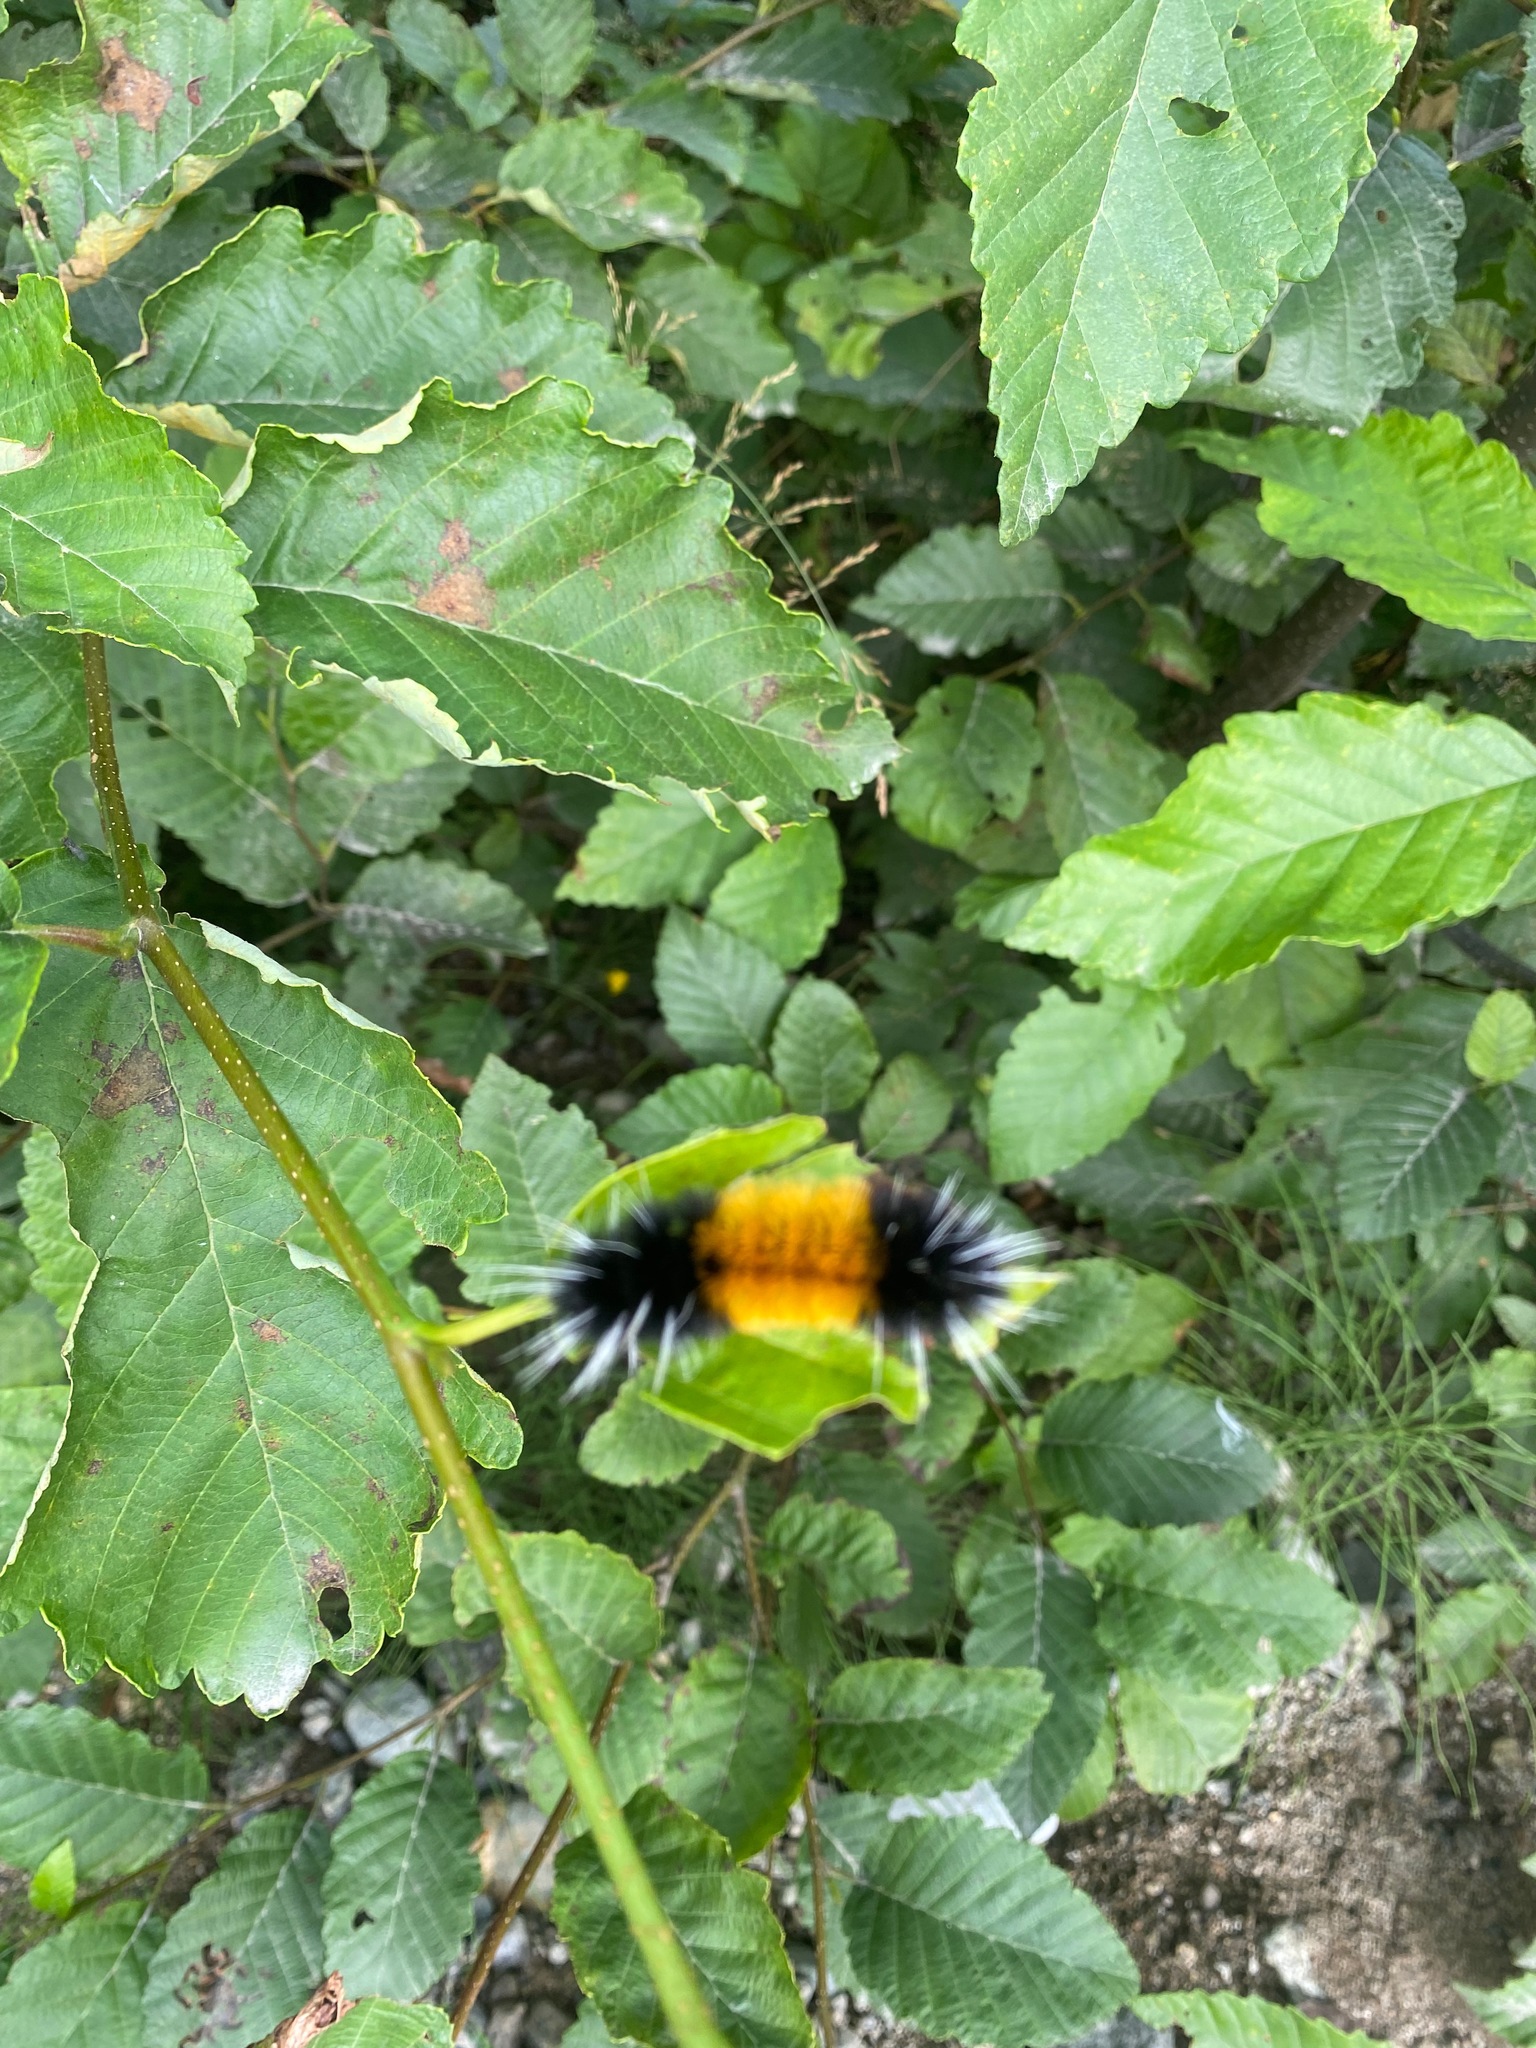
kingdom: Animalia
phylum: Arthropoda
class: Insecta
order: Lepidoptera
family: Erebidae
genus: Lophocampa
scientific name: Lophocampa maculata
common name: Spotted tussock moth
